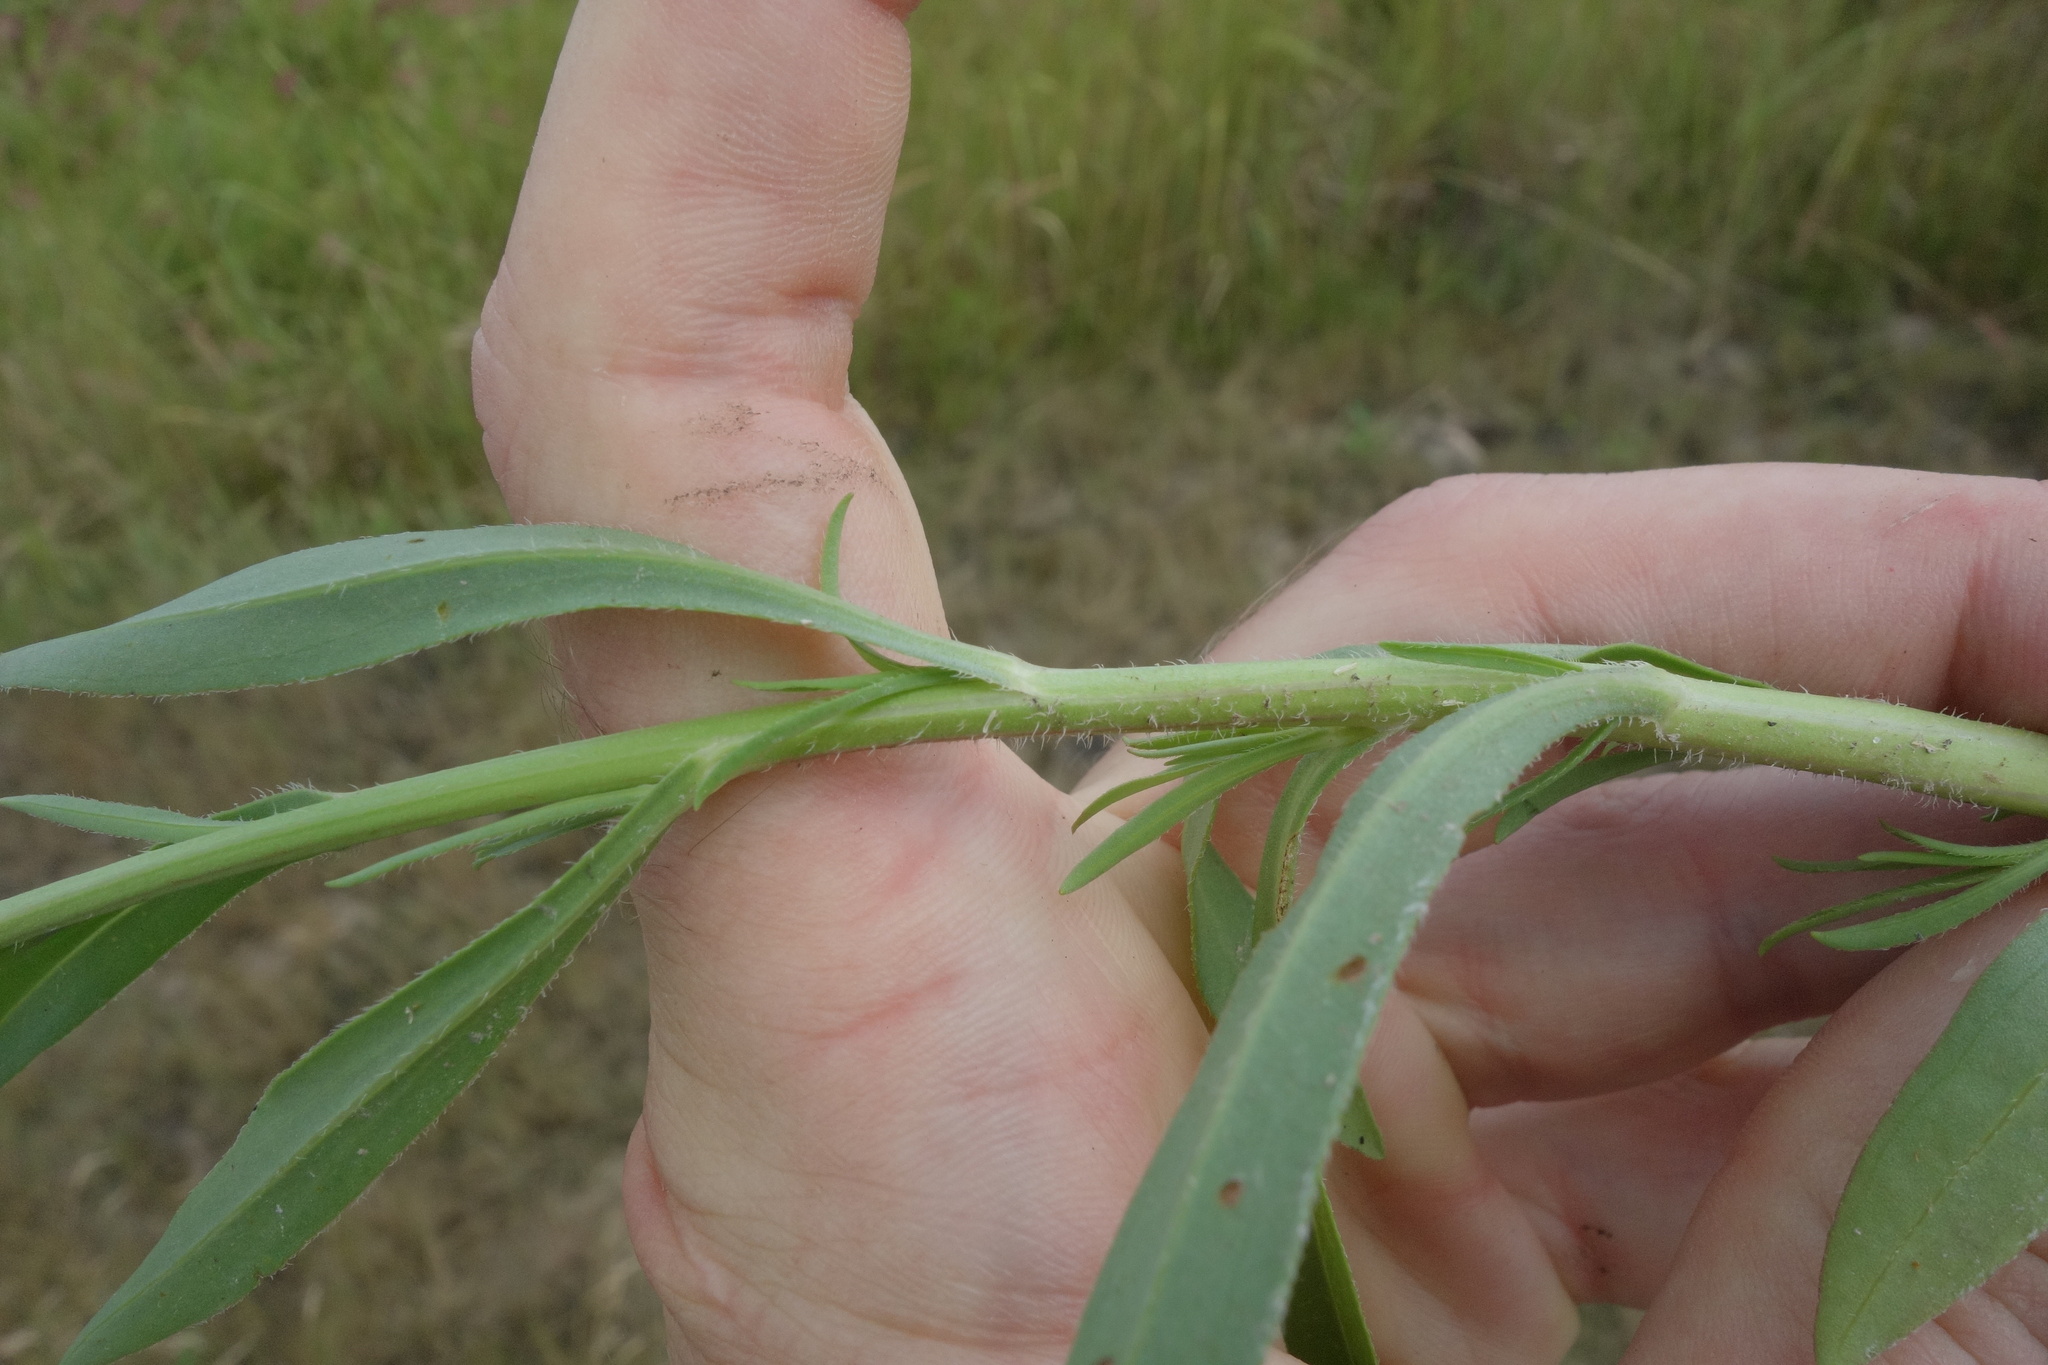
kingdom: Plantae
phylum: Tracheophyta
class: Magnoliopsida
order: Asterales
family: Asteraceae
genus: Tripolium
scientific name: Tripolium pannonicum
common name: Sea aster
